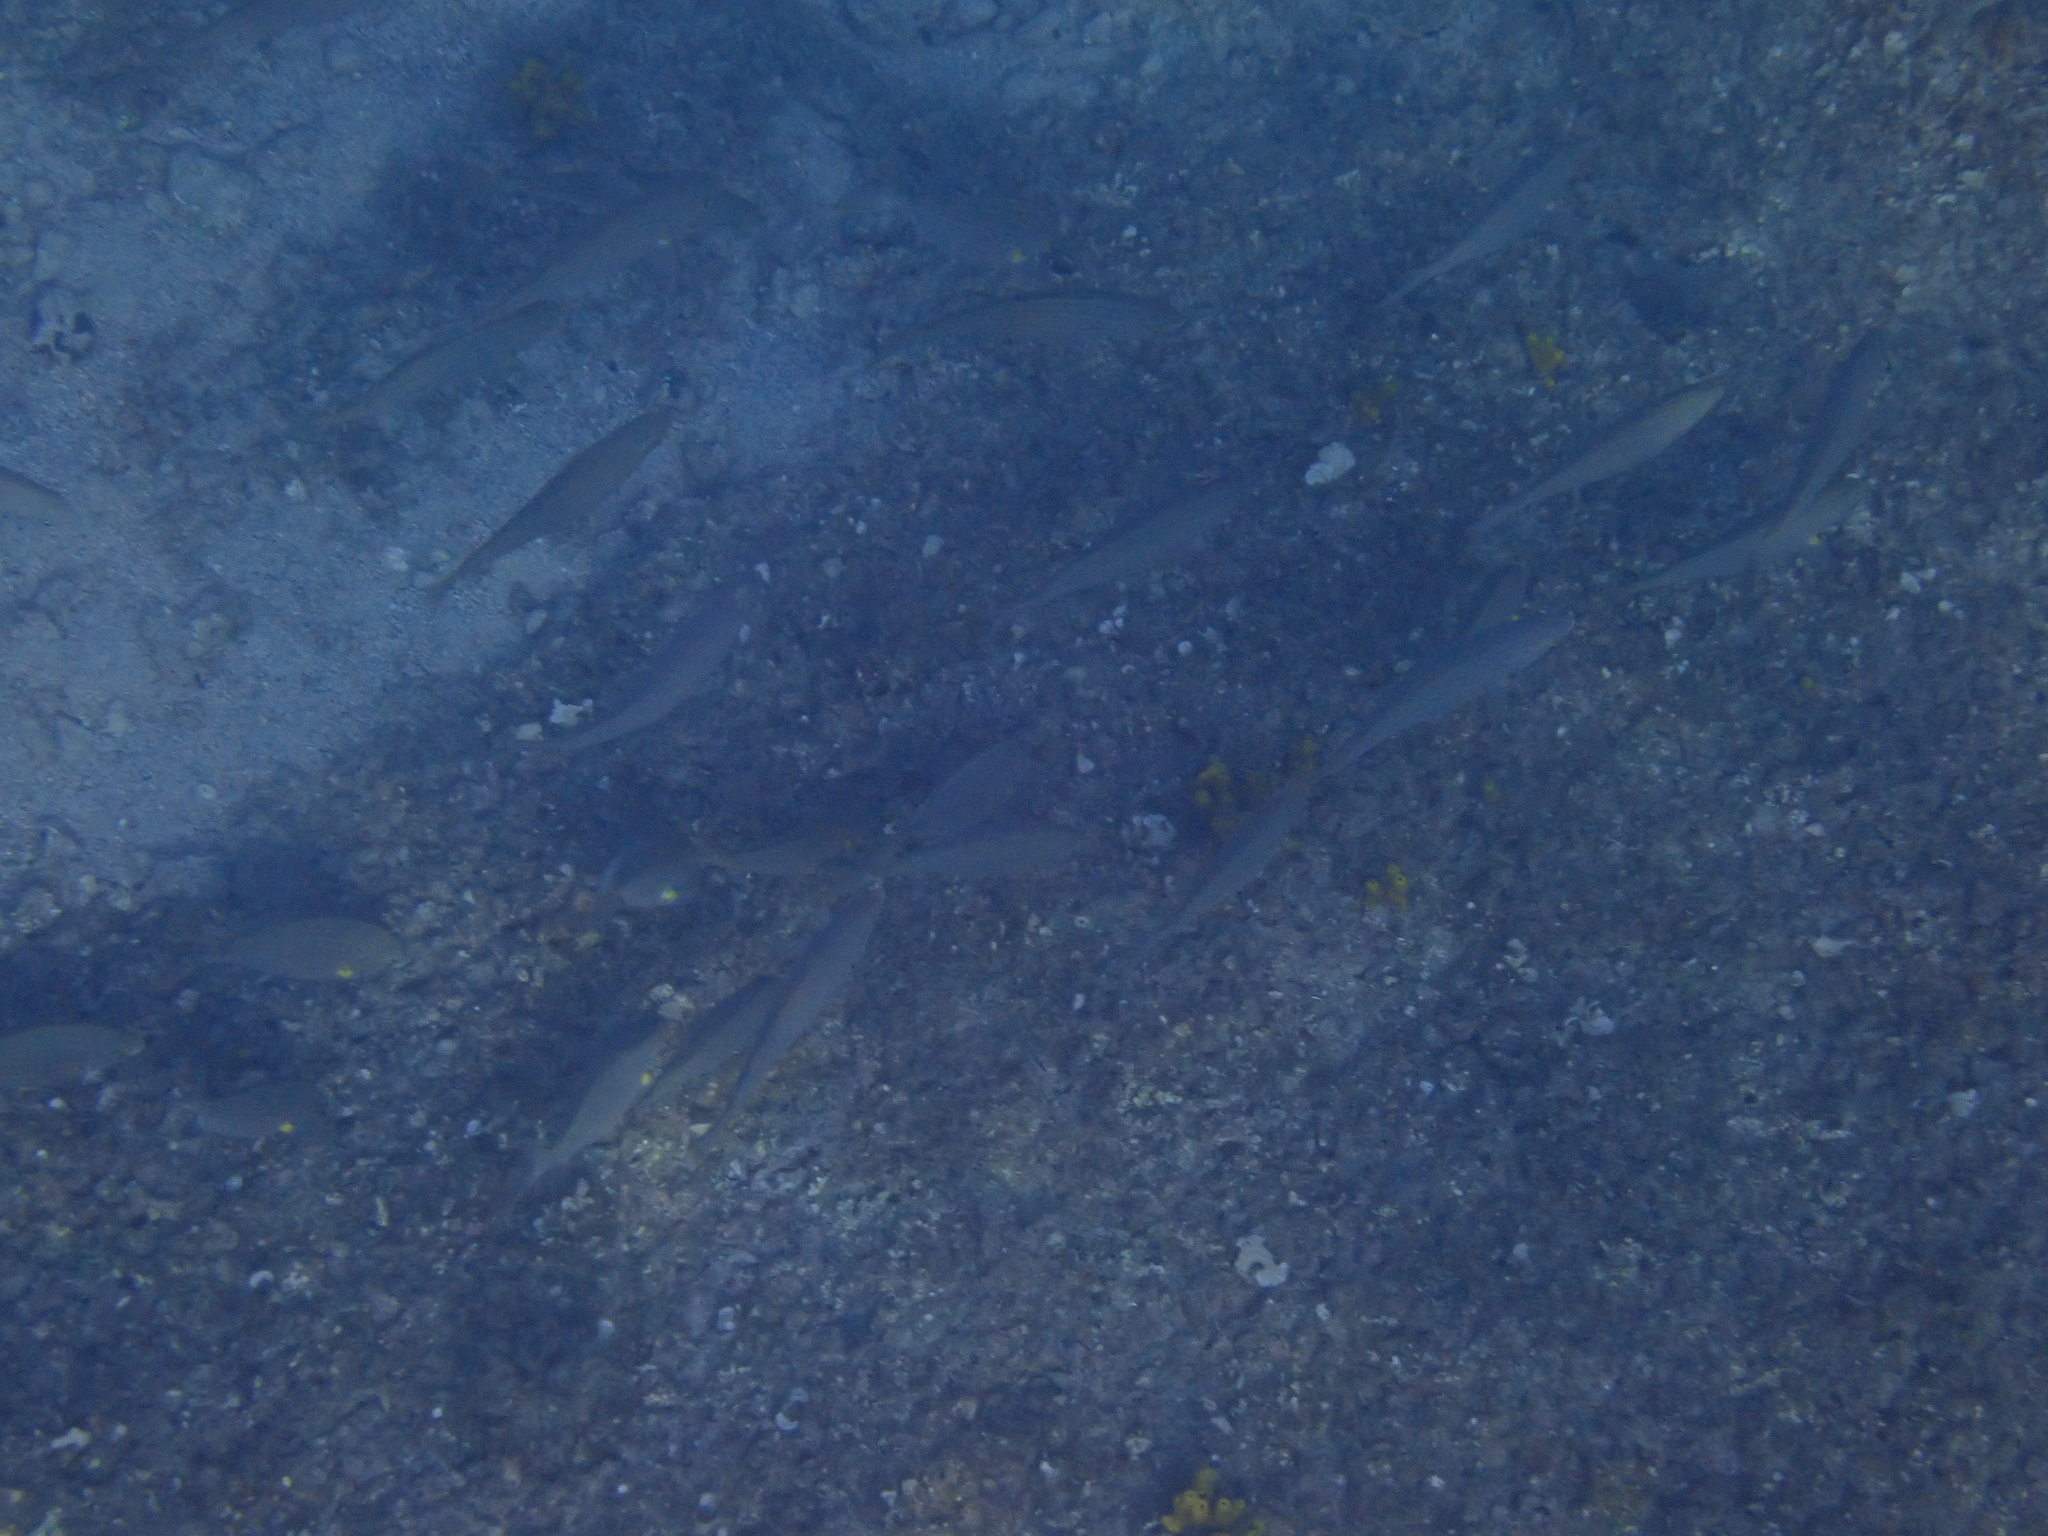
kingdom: Animalia
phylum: Chordata
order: Perciformes
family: Sparidae
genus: Sarpa
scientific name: Sarpa salpa
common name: Salema
